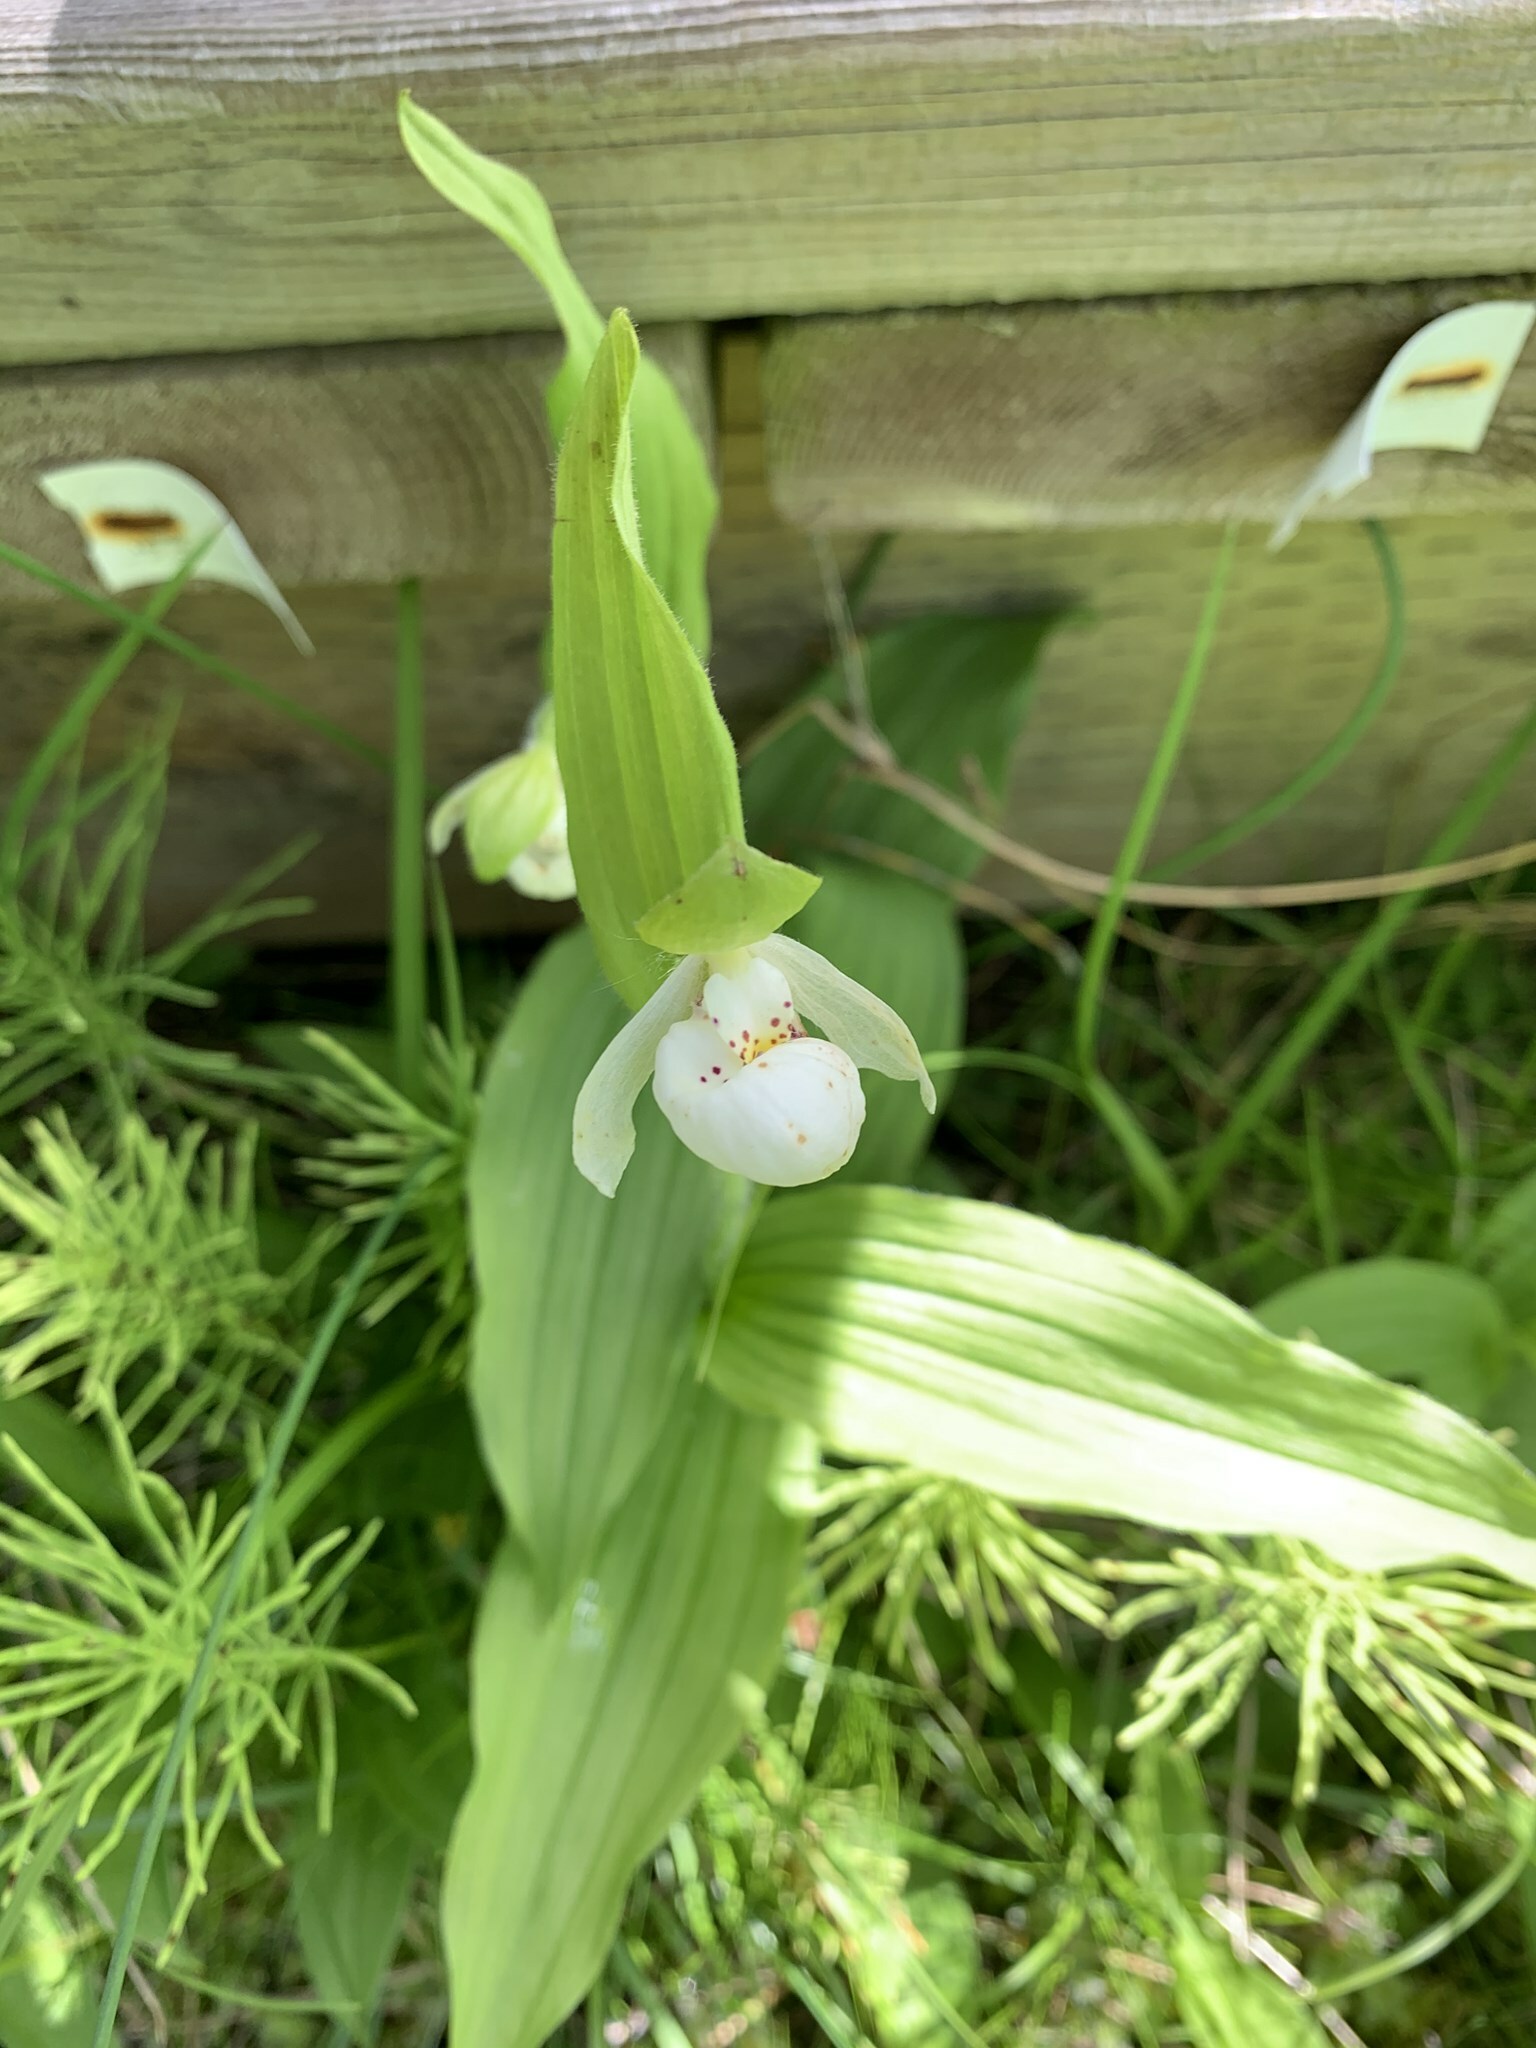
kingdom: Plantae
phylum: Tracheophyta
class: Liliopsida
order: Asparagales
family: Orchidaceae
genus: Cypripedium
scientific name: Cypripedium passerinum
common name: Sparrow's-egg lady's-slipper
